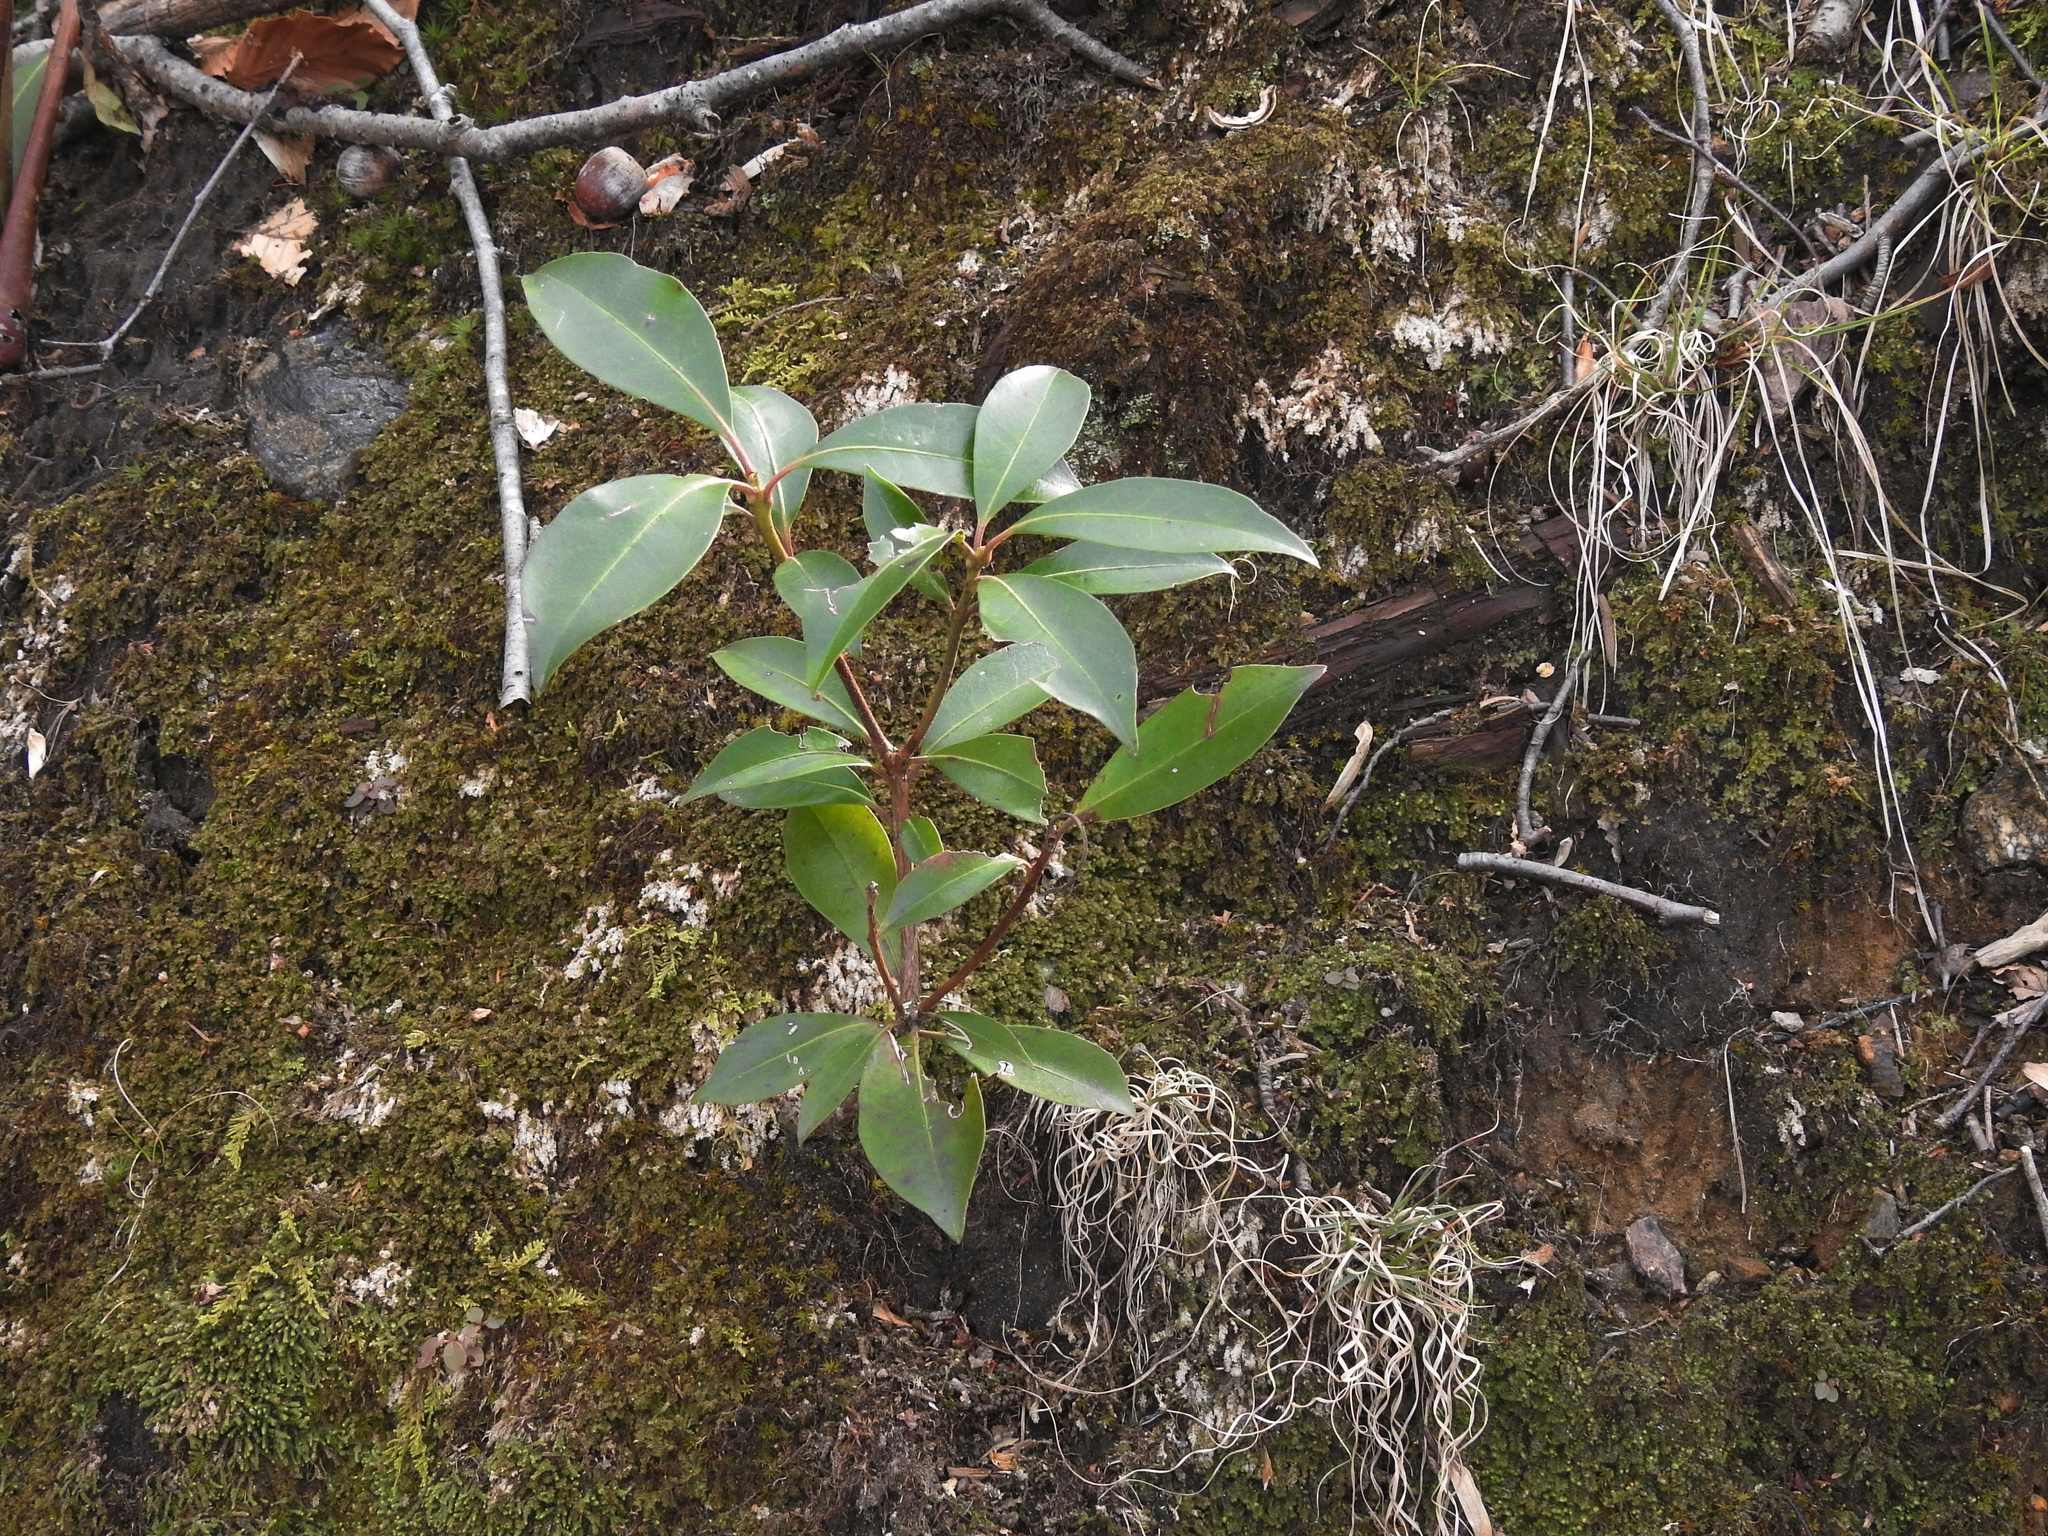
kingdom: Plantae
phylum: Tracheophyta
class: Magnoliopsida
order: Ericales
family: Ericaceae
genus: Kalmia
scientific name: Kalmia latifolia
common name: Mountain-laurel
